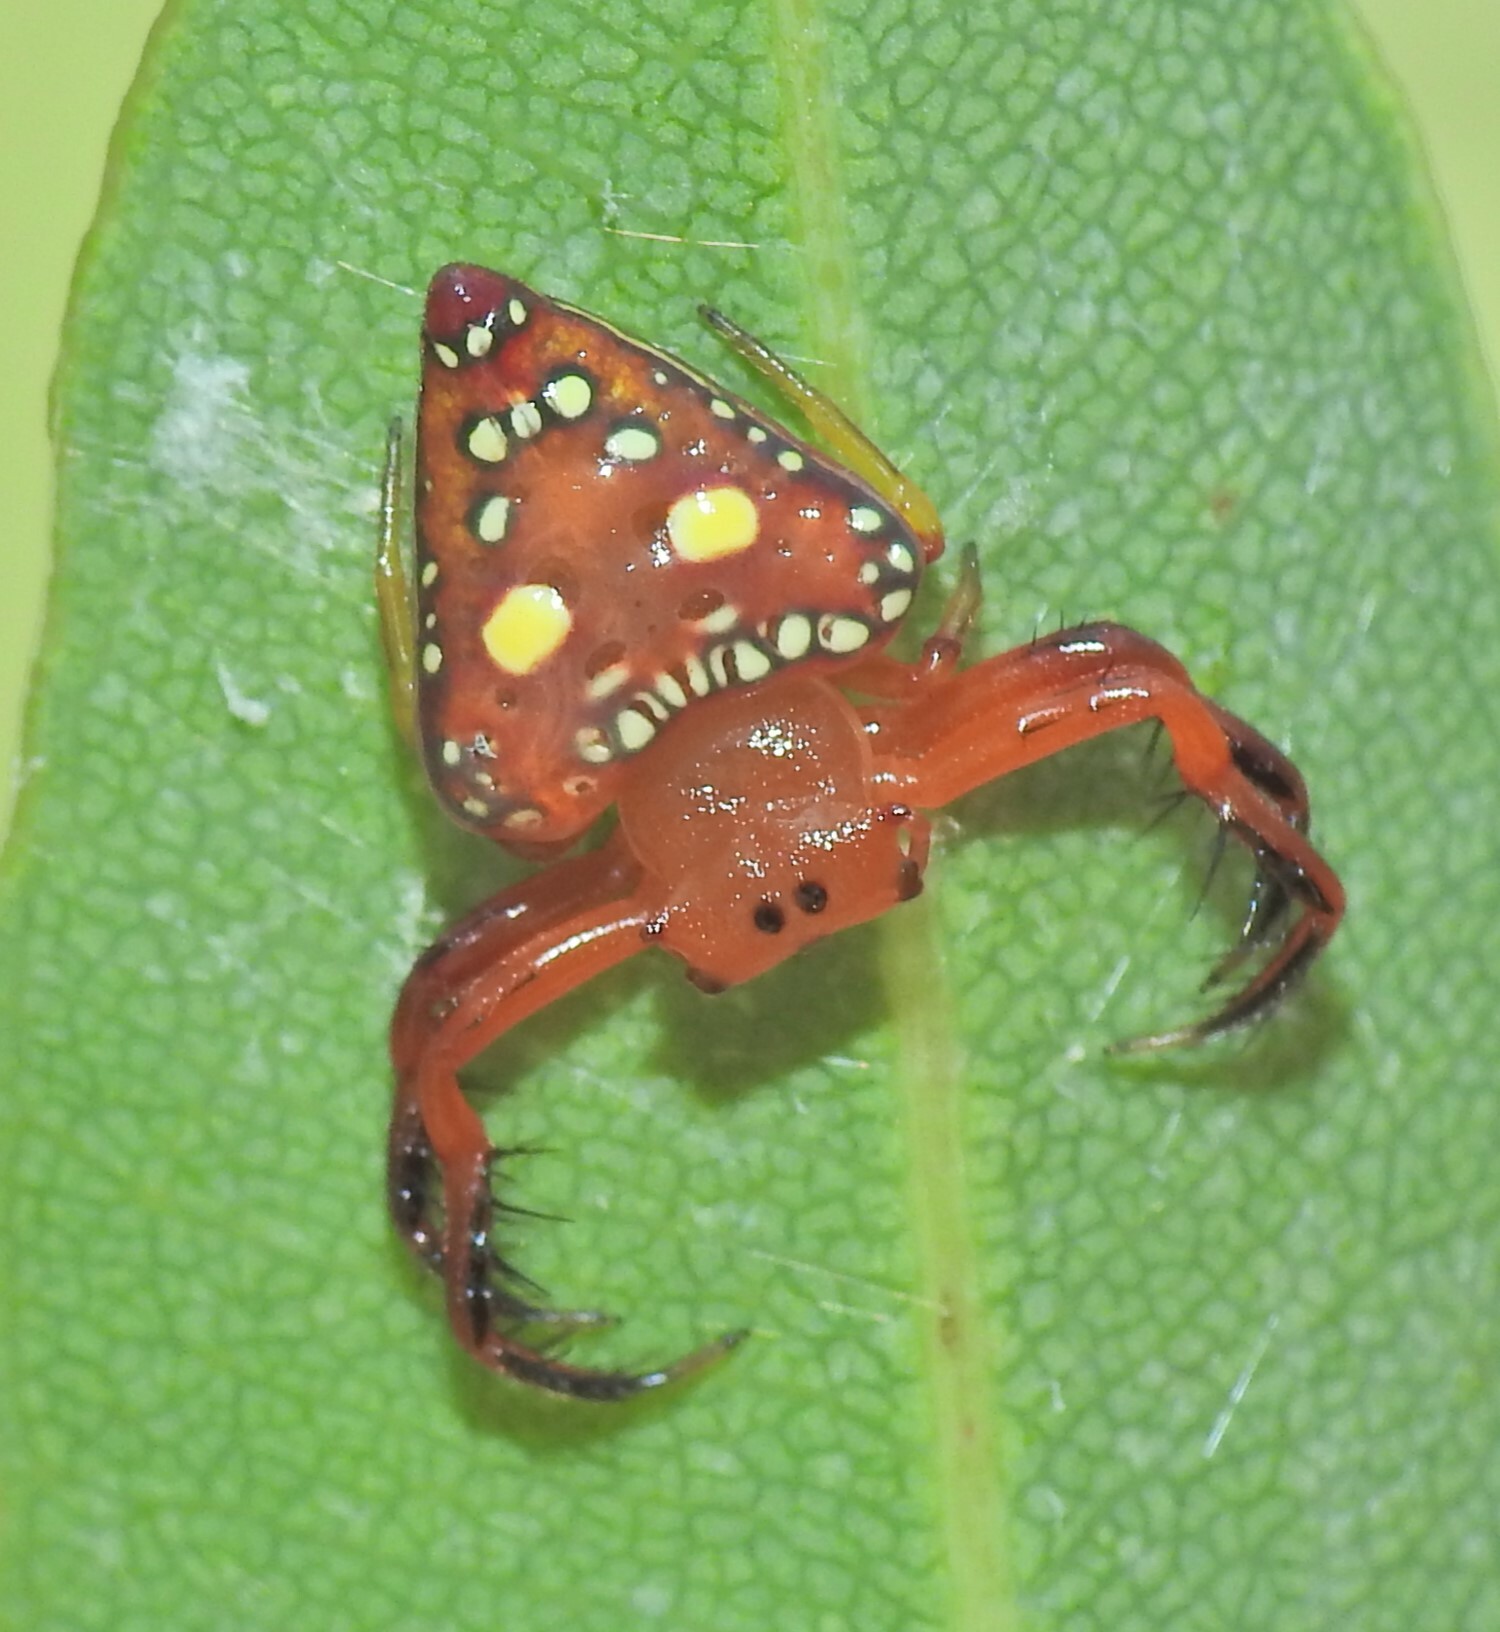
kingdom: Animalia
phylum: Arthropoda
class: Arachnida
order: Araneae
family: Arkyidae
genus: Arkys
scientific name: Arkys lancearius
